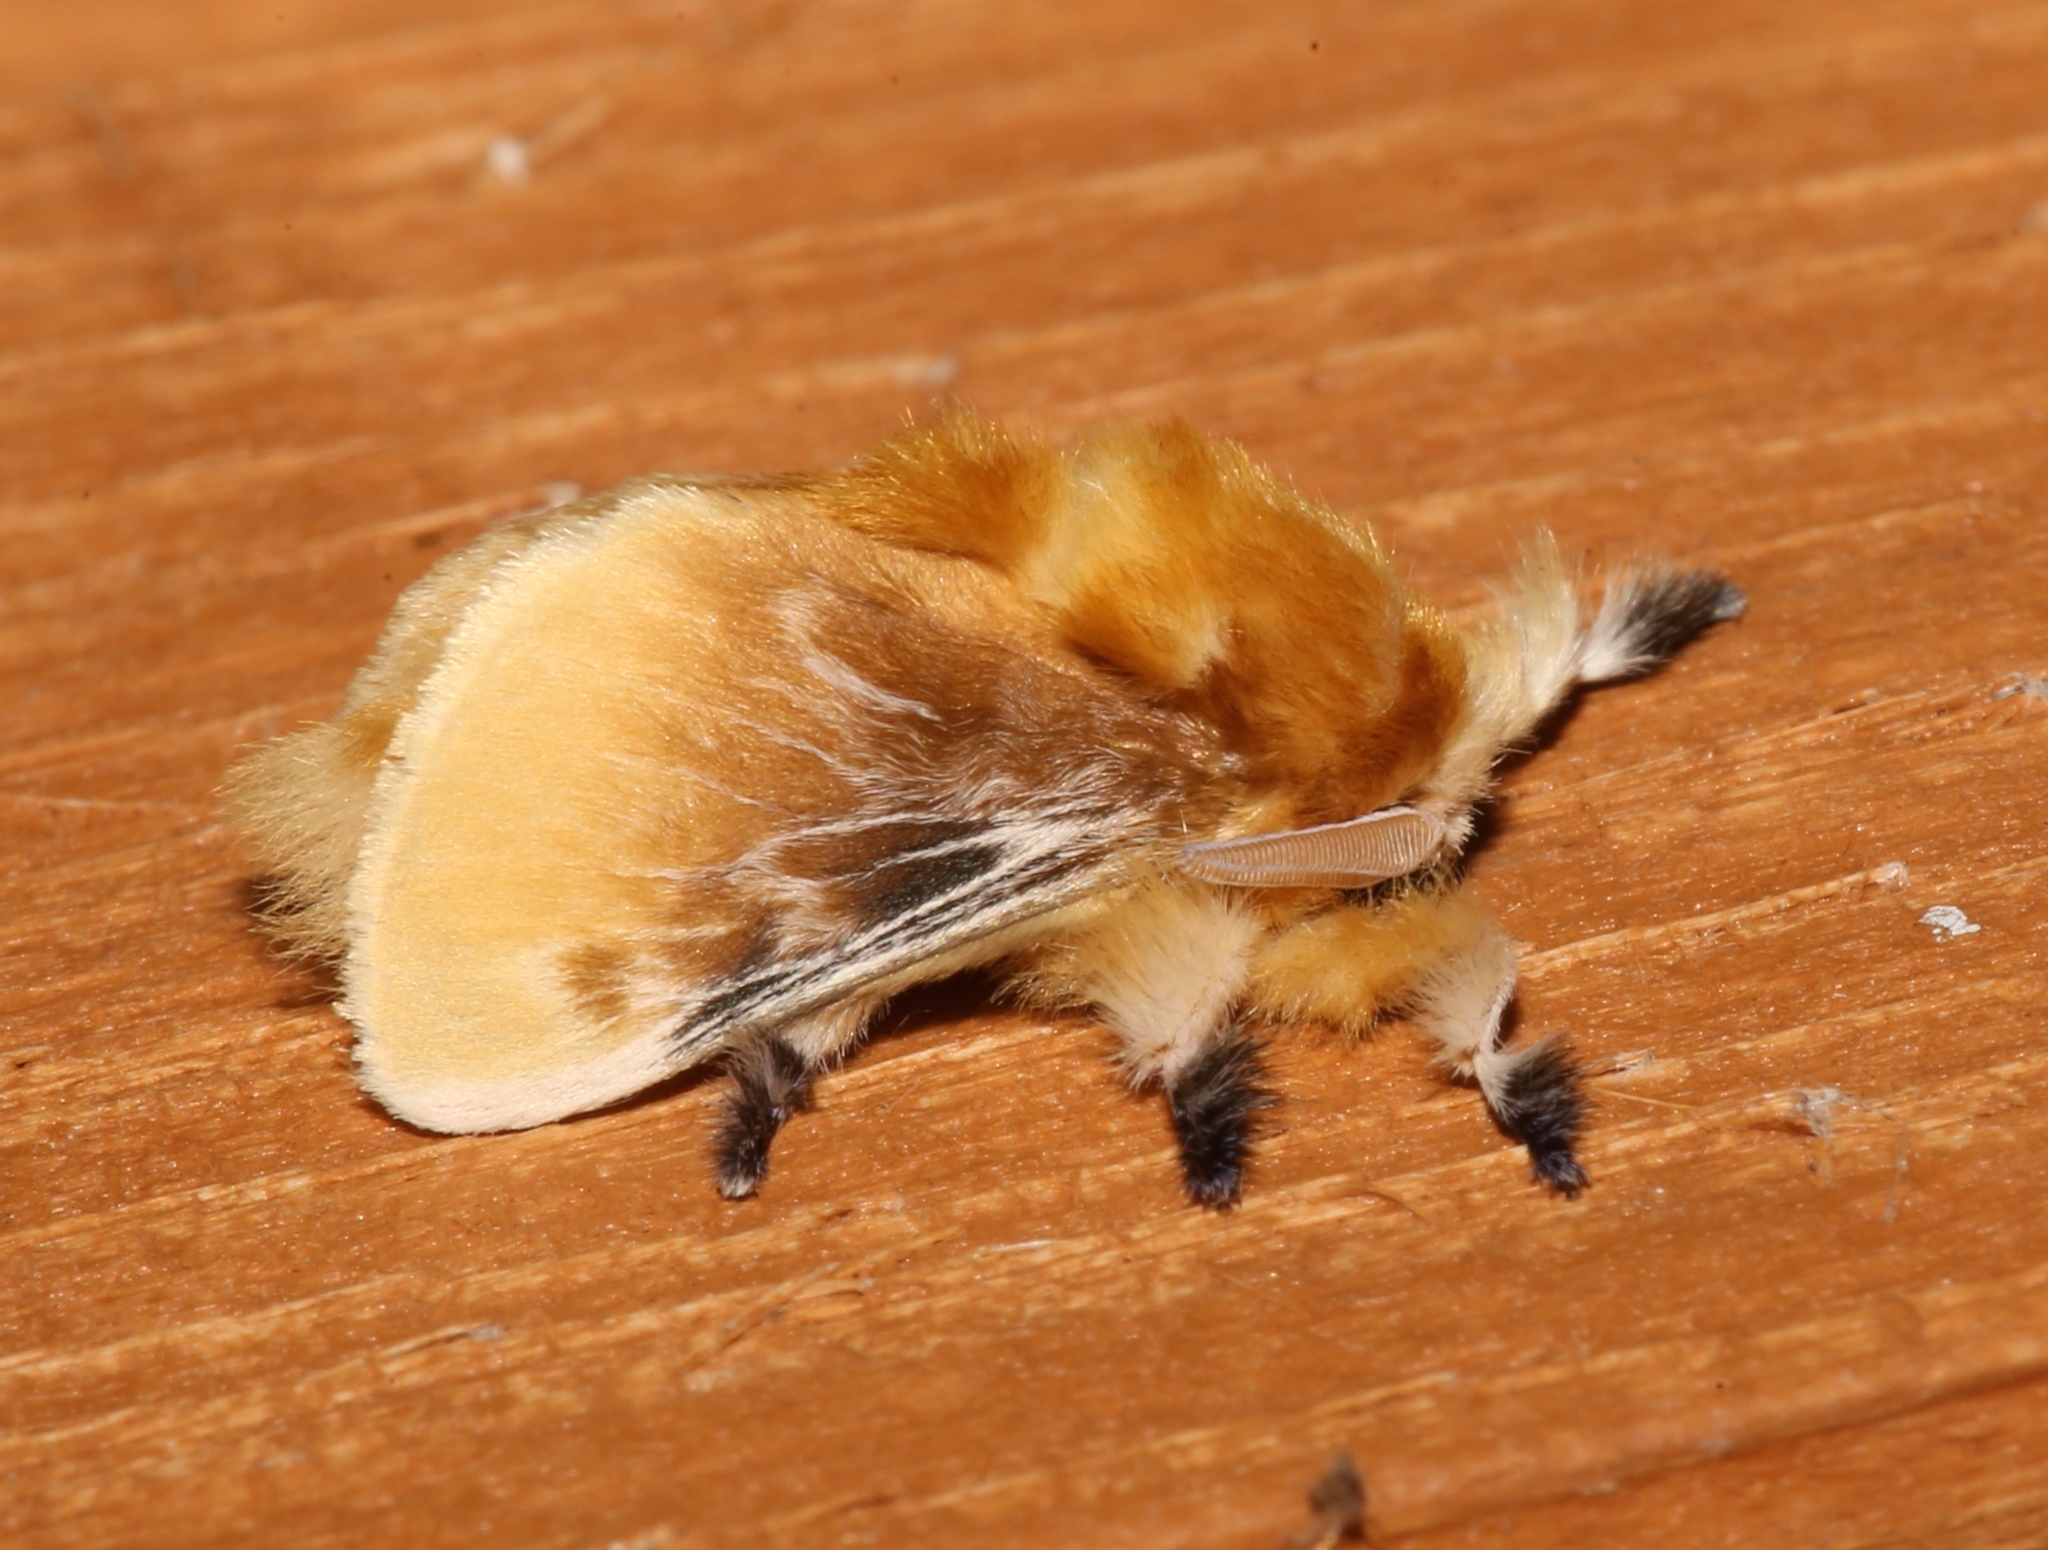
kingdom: Animalia
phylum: Arthropoda
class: Insecta
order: Lepidoptera
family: Megalopygidae
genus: Megalopyge
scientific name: Megalopyge opercularis
